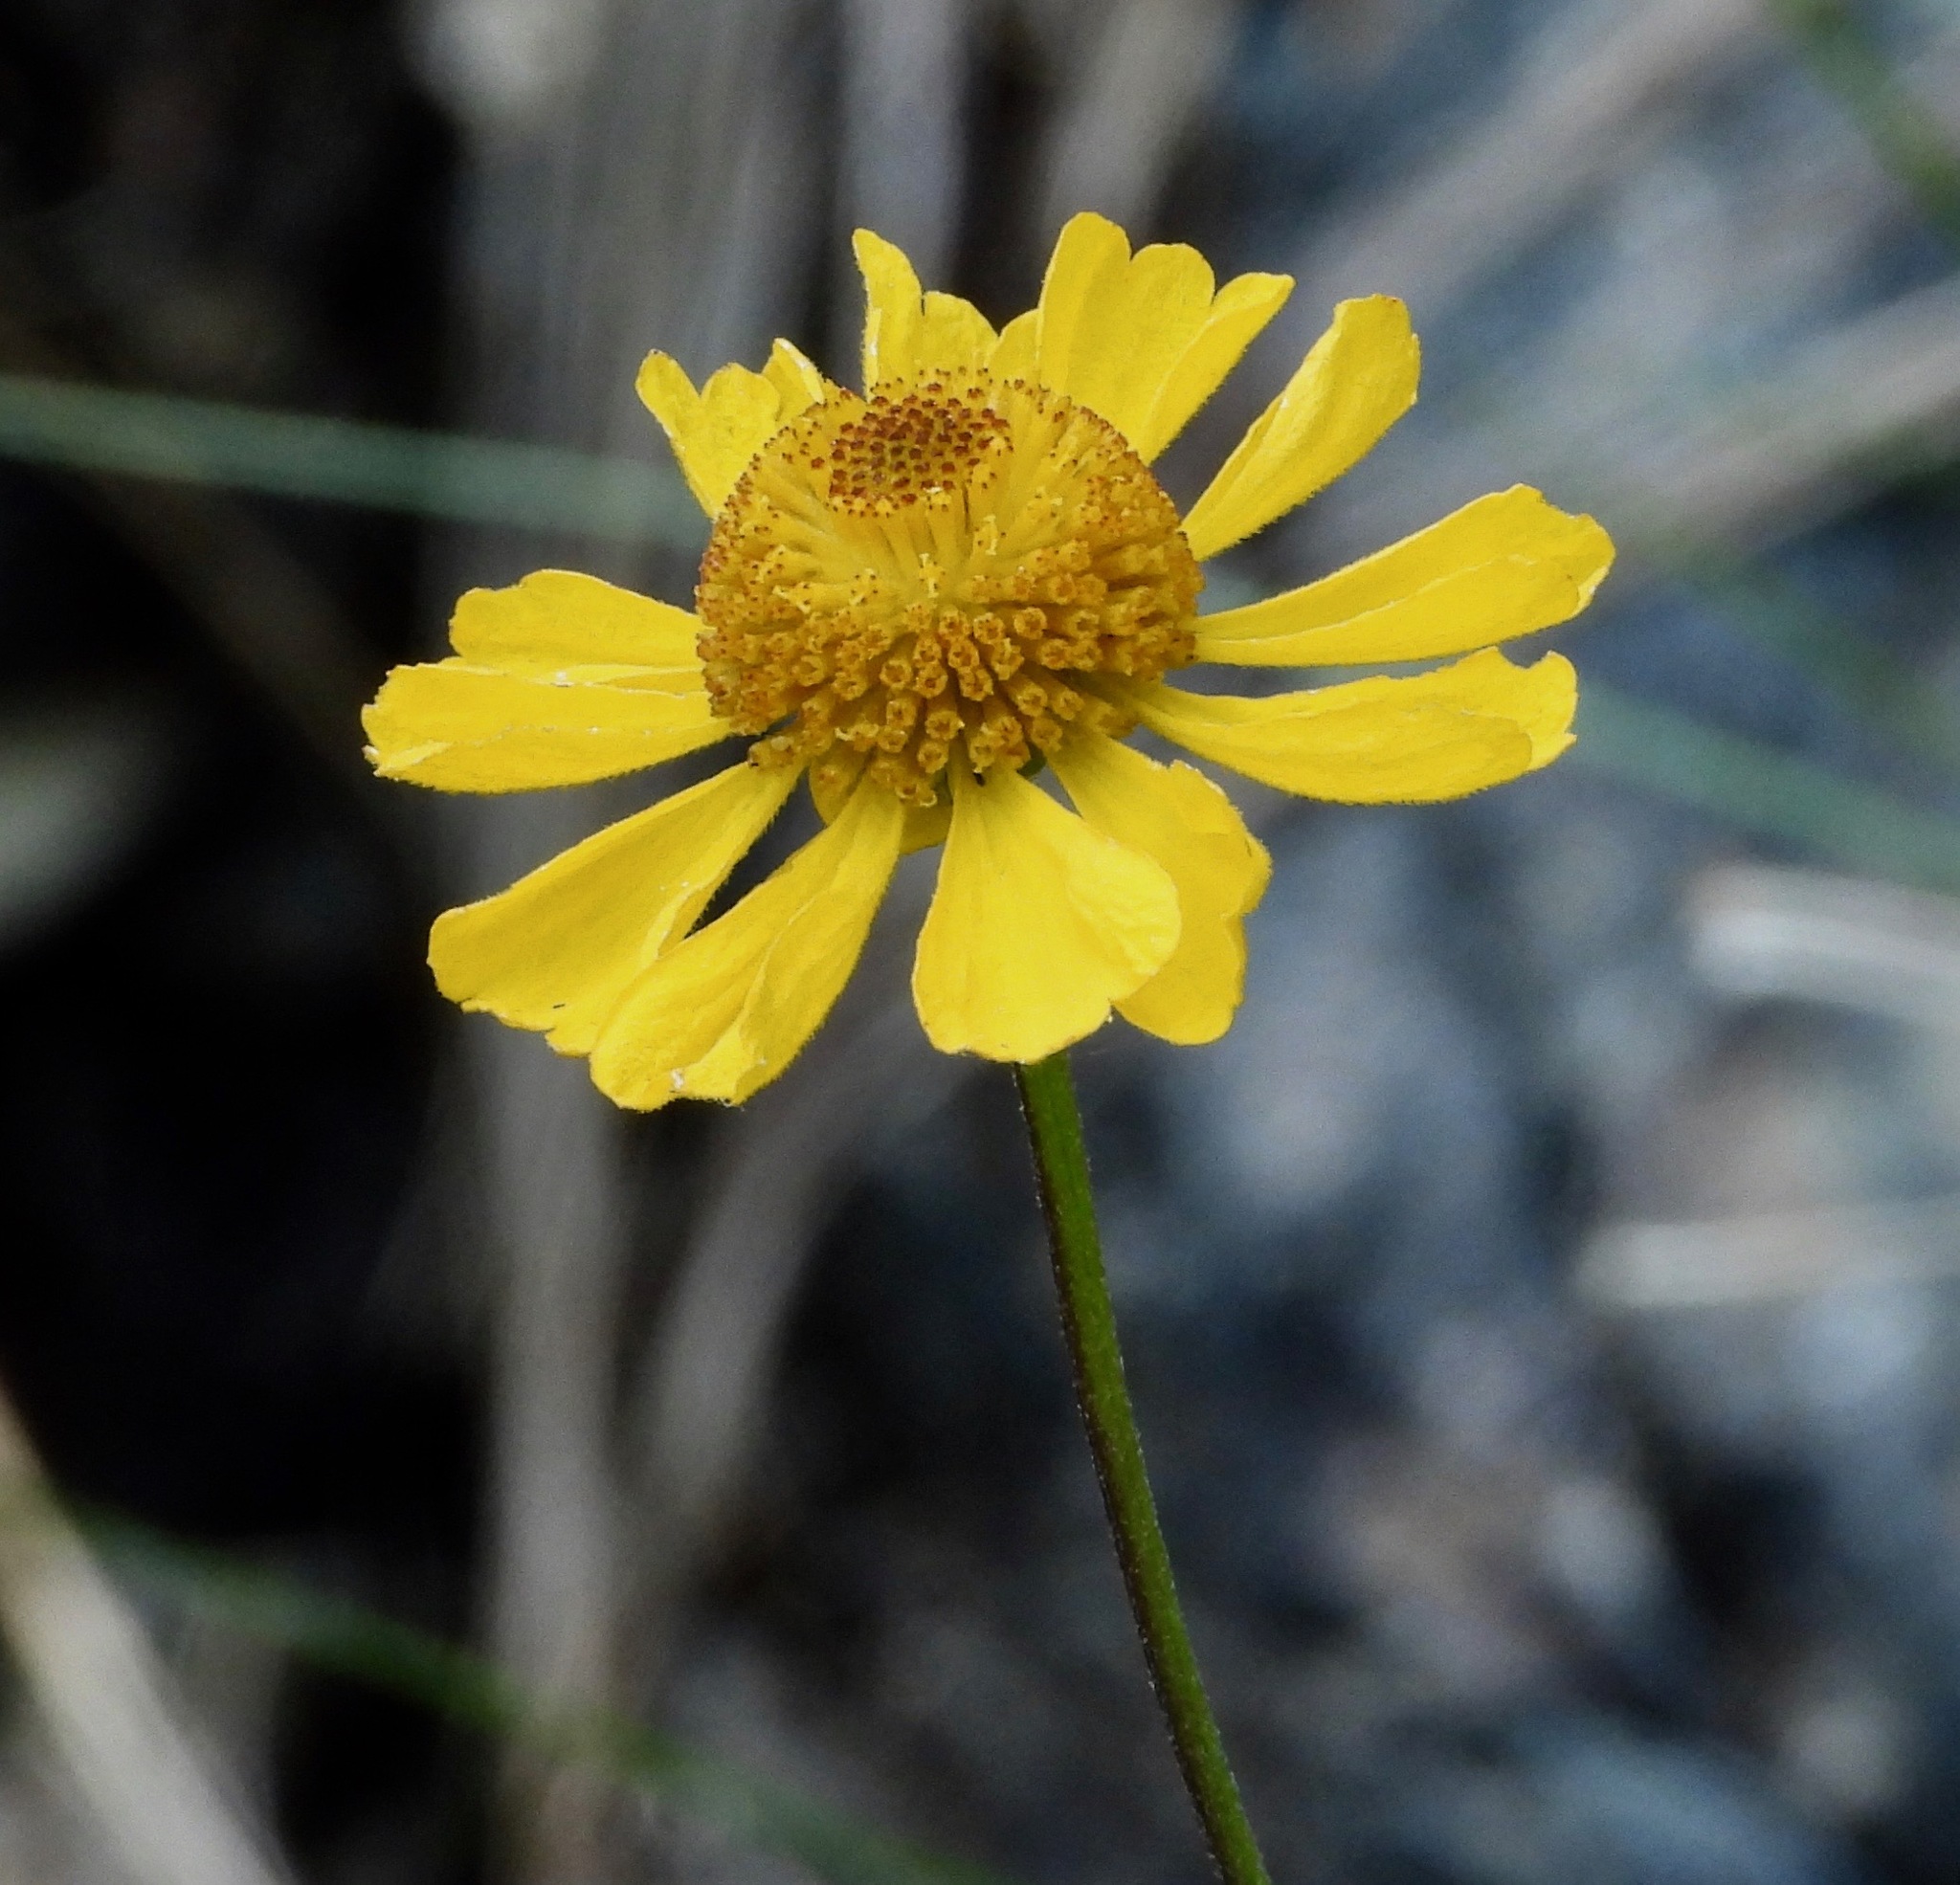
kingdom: Plantae
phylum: Tracheophyta
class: Magnoliopsida
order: Asterales
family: Asteraceae
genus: Helenium
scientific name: Helenium bigelovii
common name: Bigelow's sneezeweed
